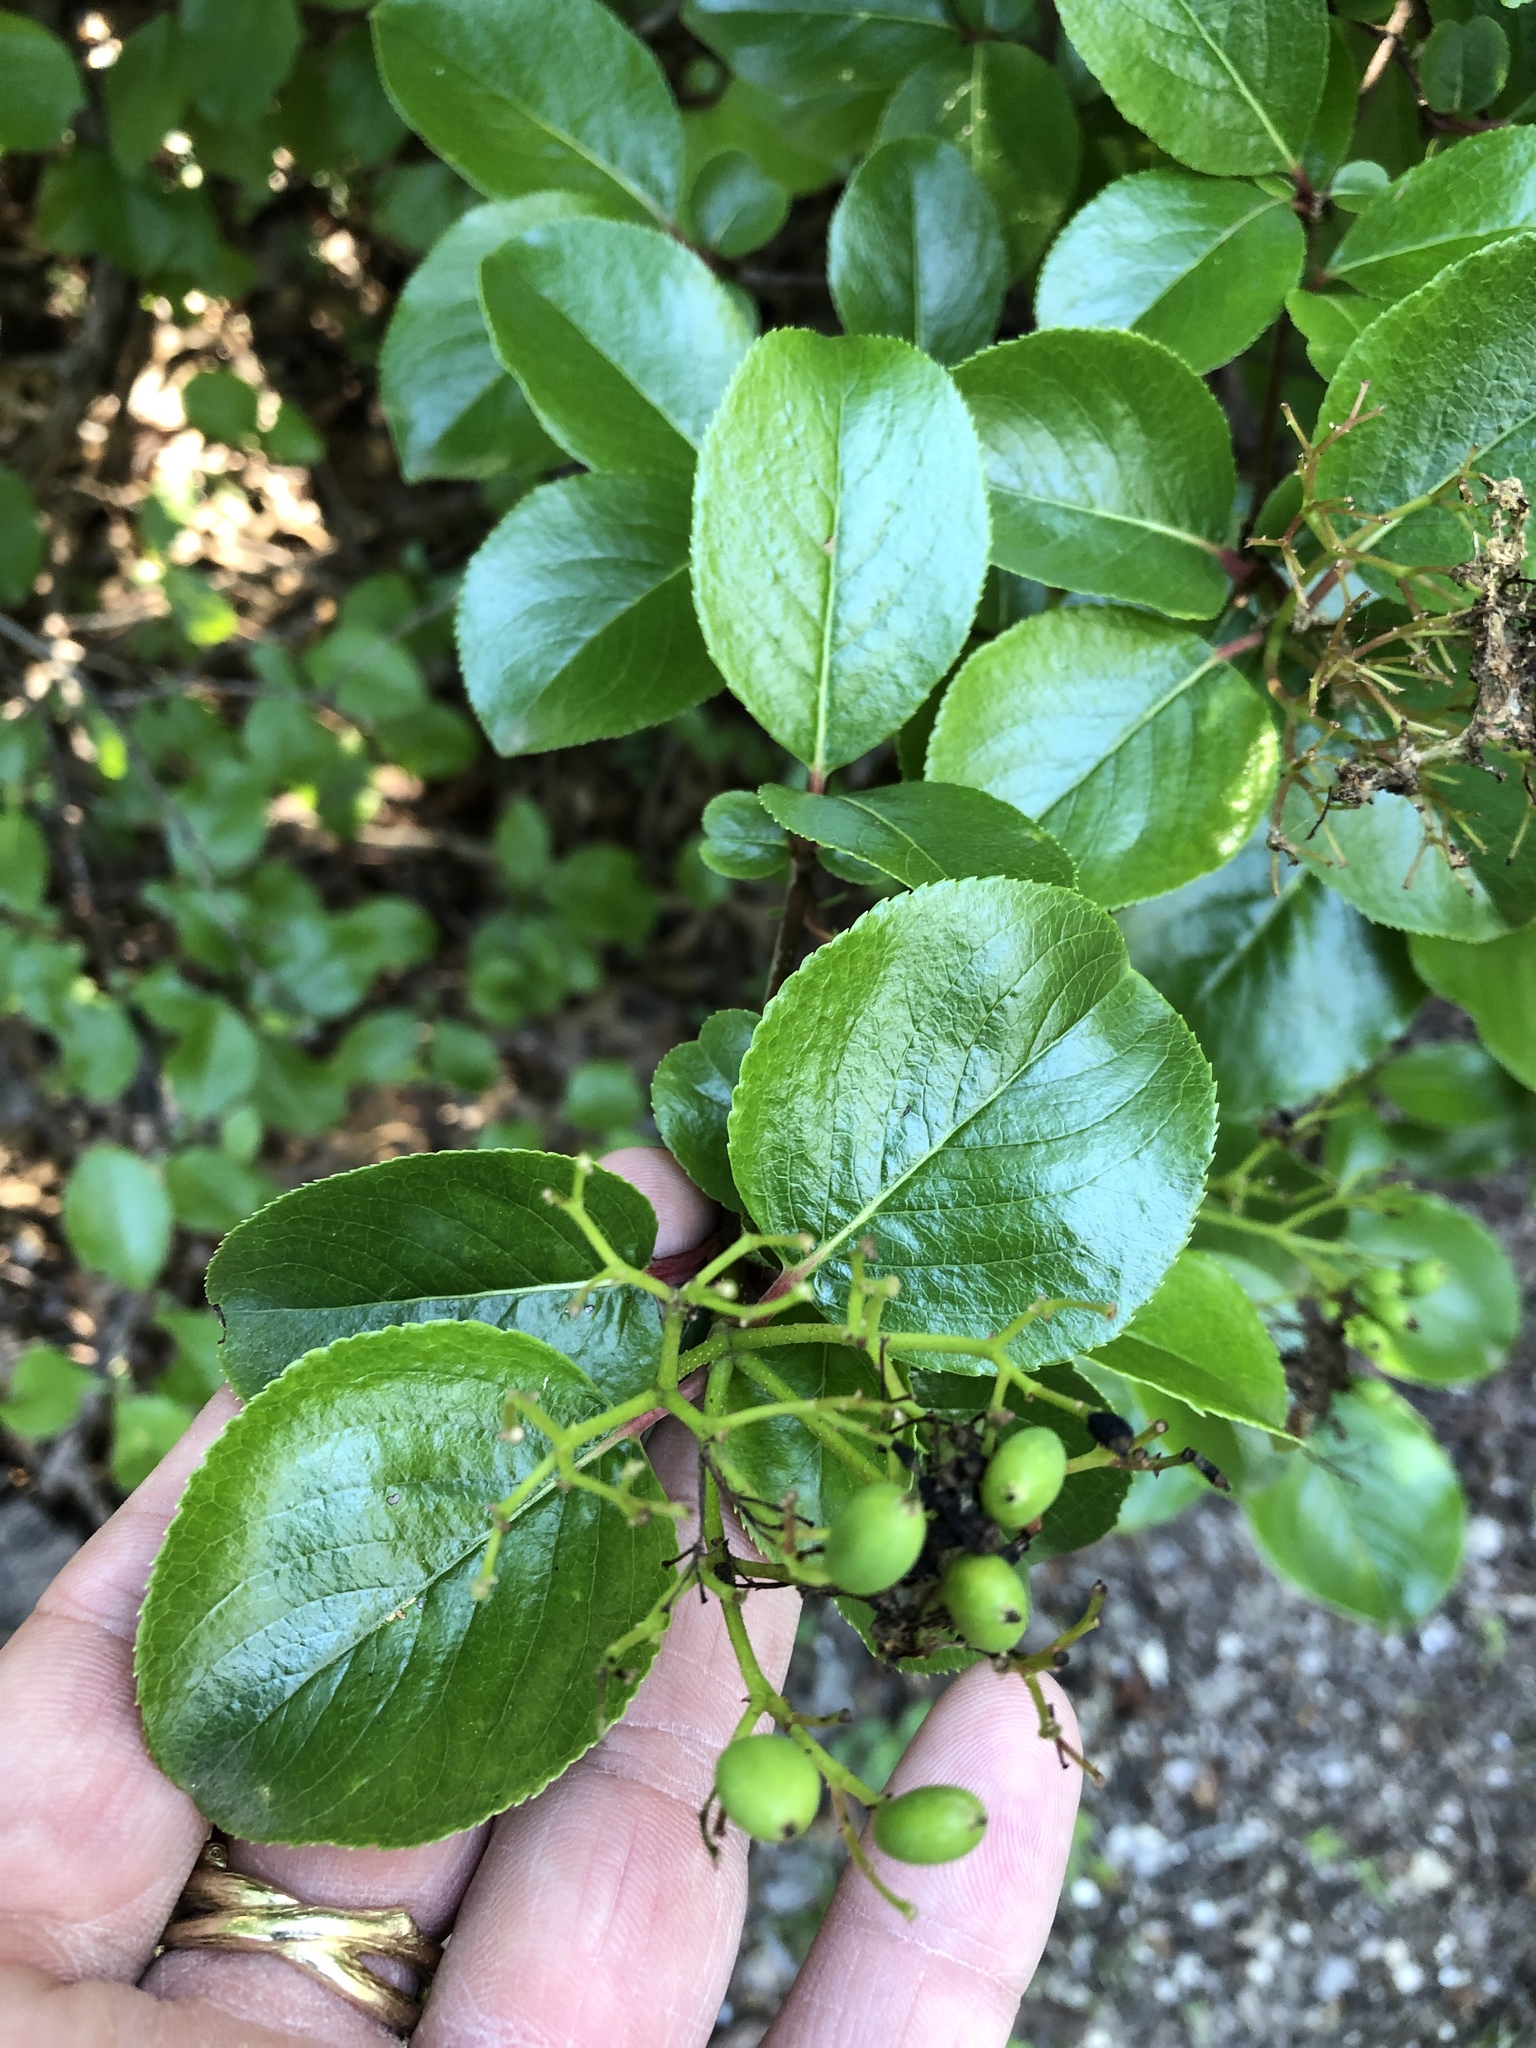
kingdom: Plantae
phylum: Tracheophyta
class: Magnoliopsida
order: Dipsacales
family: Viburnaceae
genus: Viburnum
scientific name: Viburnum rufidulum
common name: Blue haw
